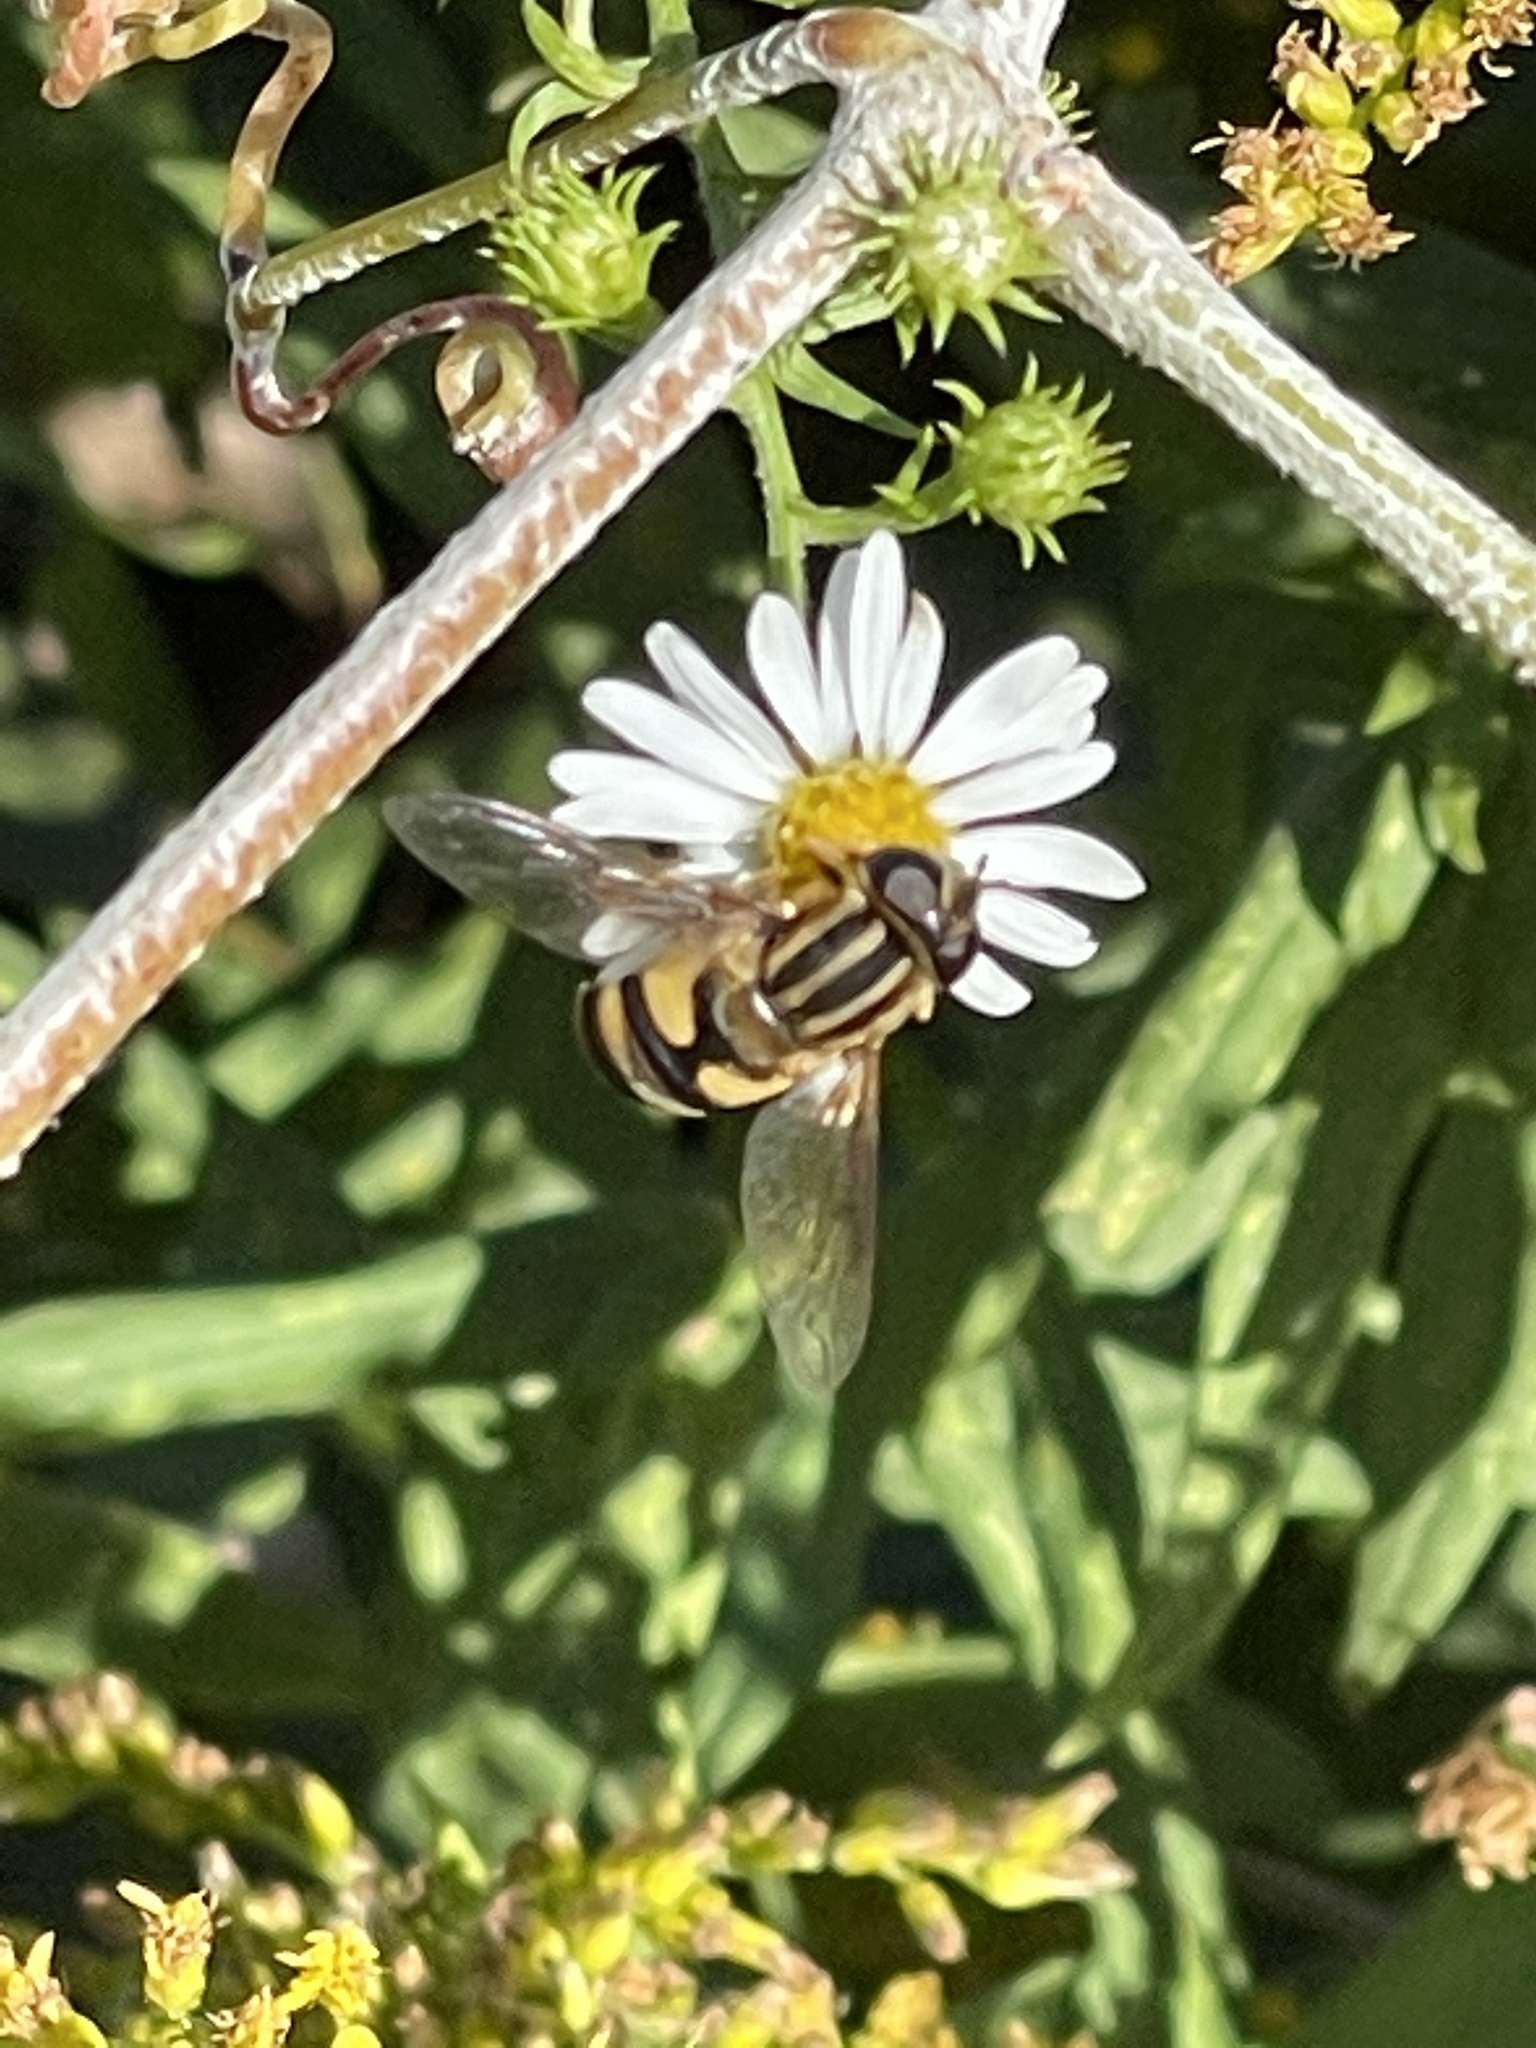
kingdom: Animalia
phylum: Arthropoda
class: Insecta
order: Diptera
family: Syrphidae
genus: Helophilus
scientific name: Helophilus fasciatus
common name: Narrow-headed marsh fly
